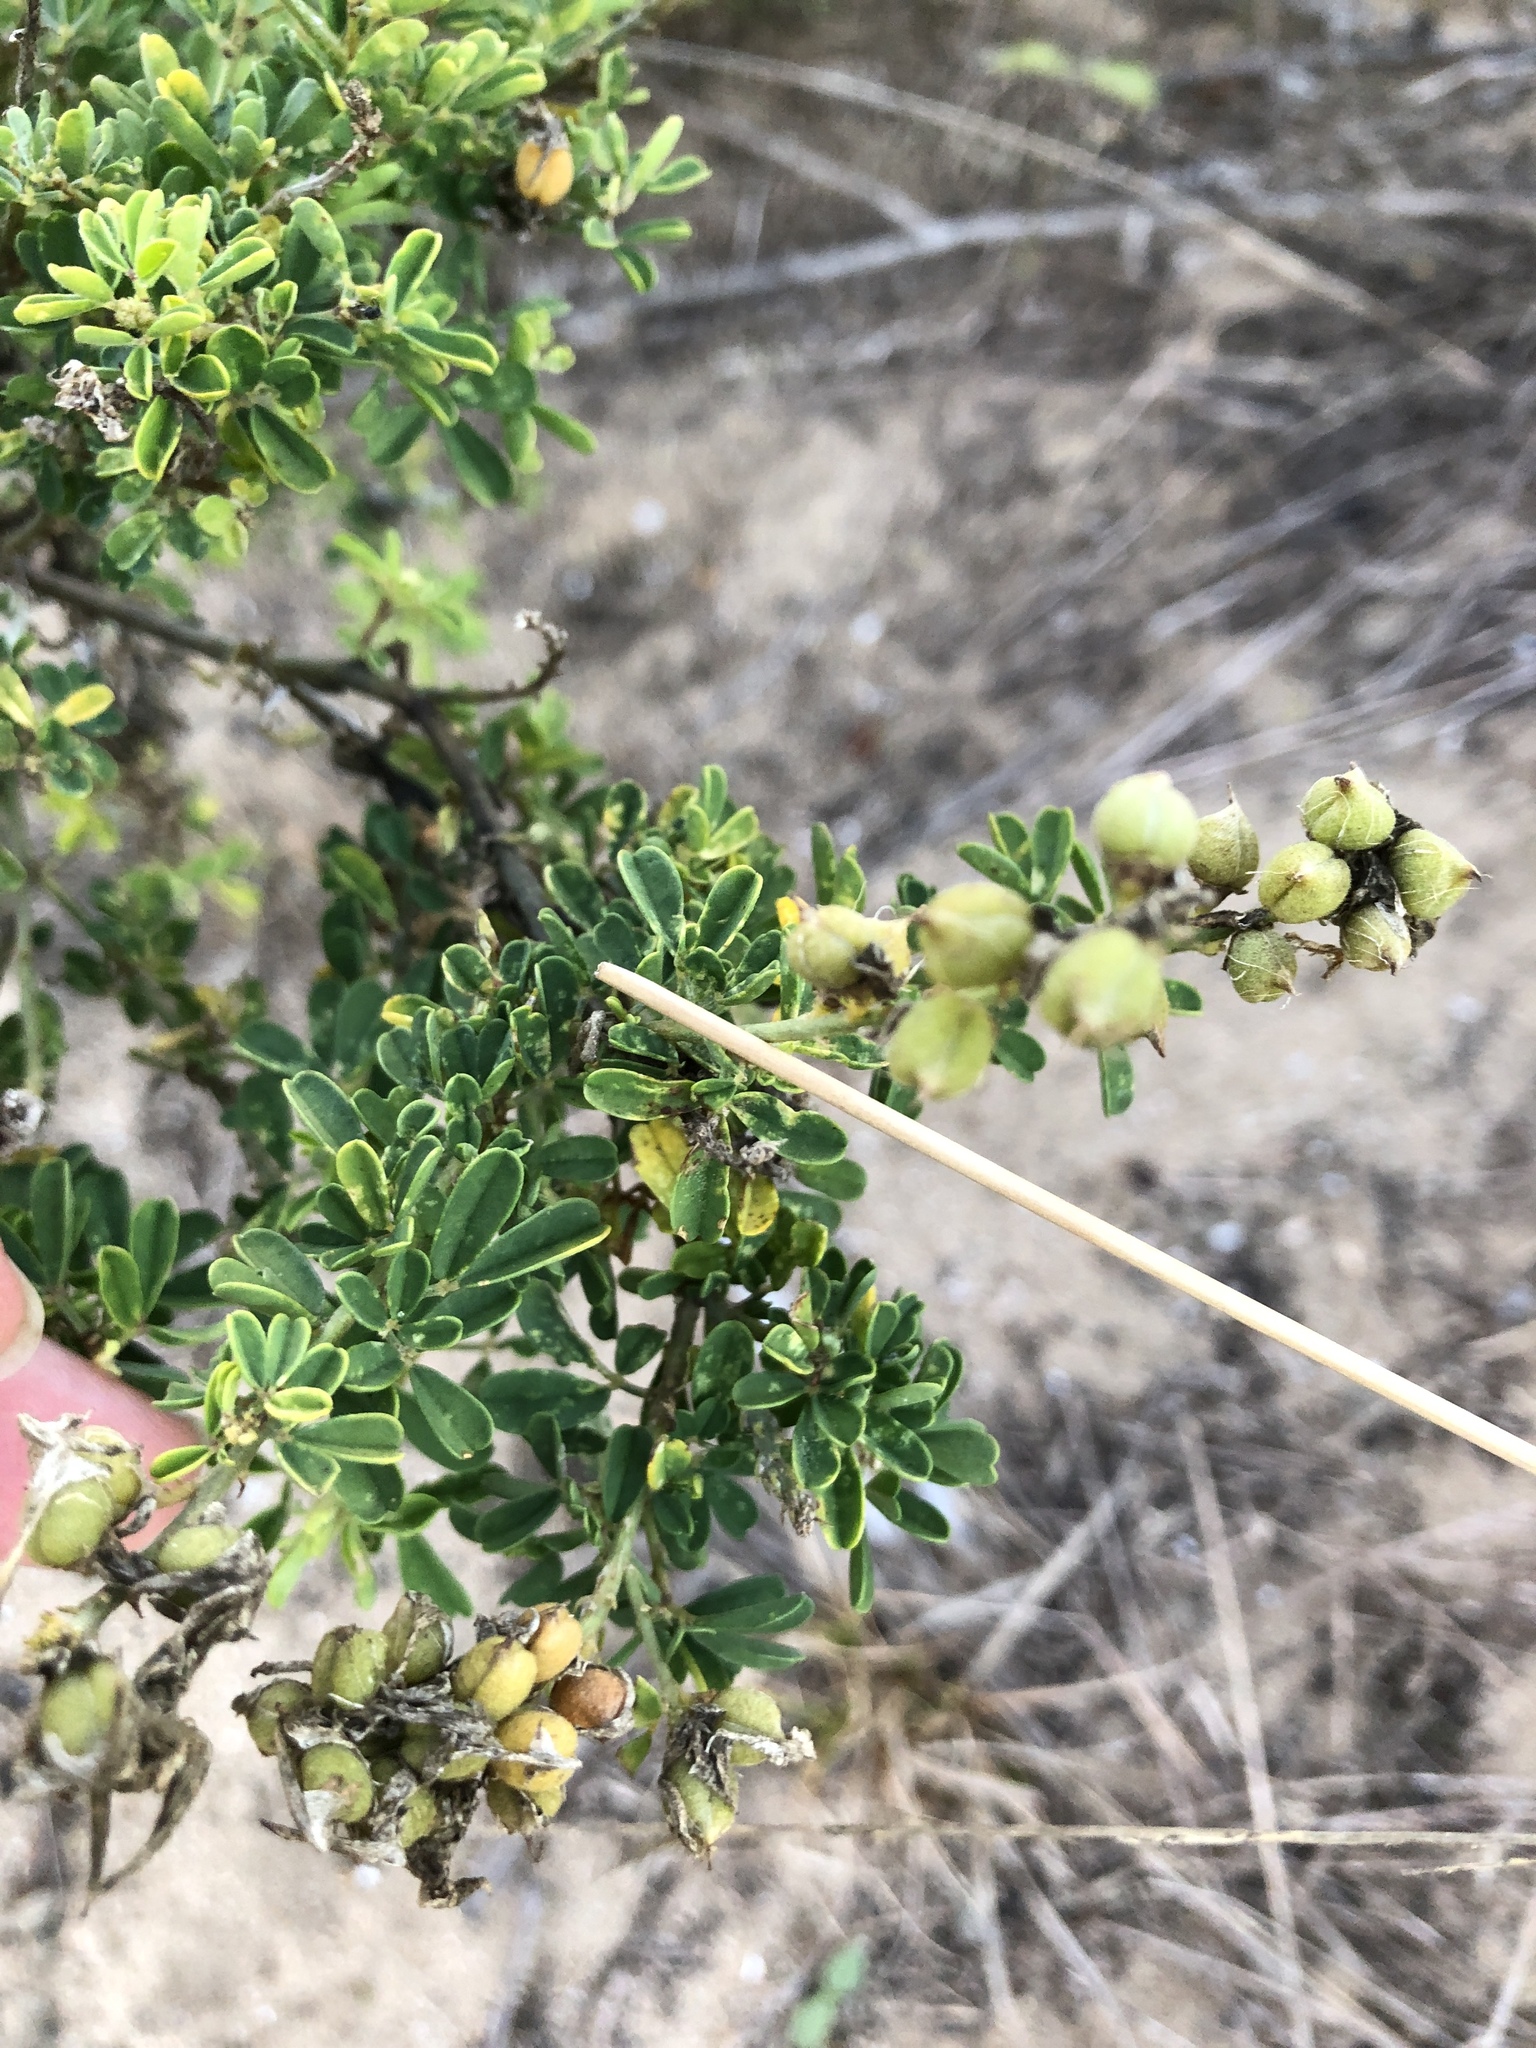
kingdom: Plantae
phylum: Tracheophyta
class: Magnoliopsida
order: Fabales
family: Fabaceae
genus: Crotalaria
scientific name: Crotalaria medicaginea
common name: Trefoil rattlepod
